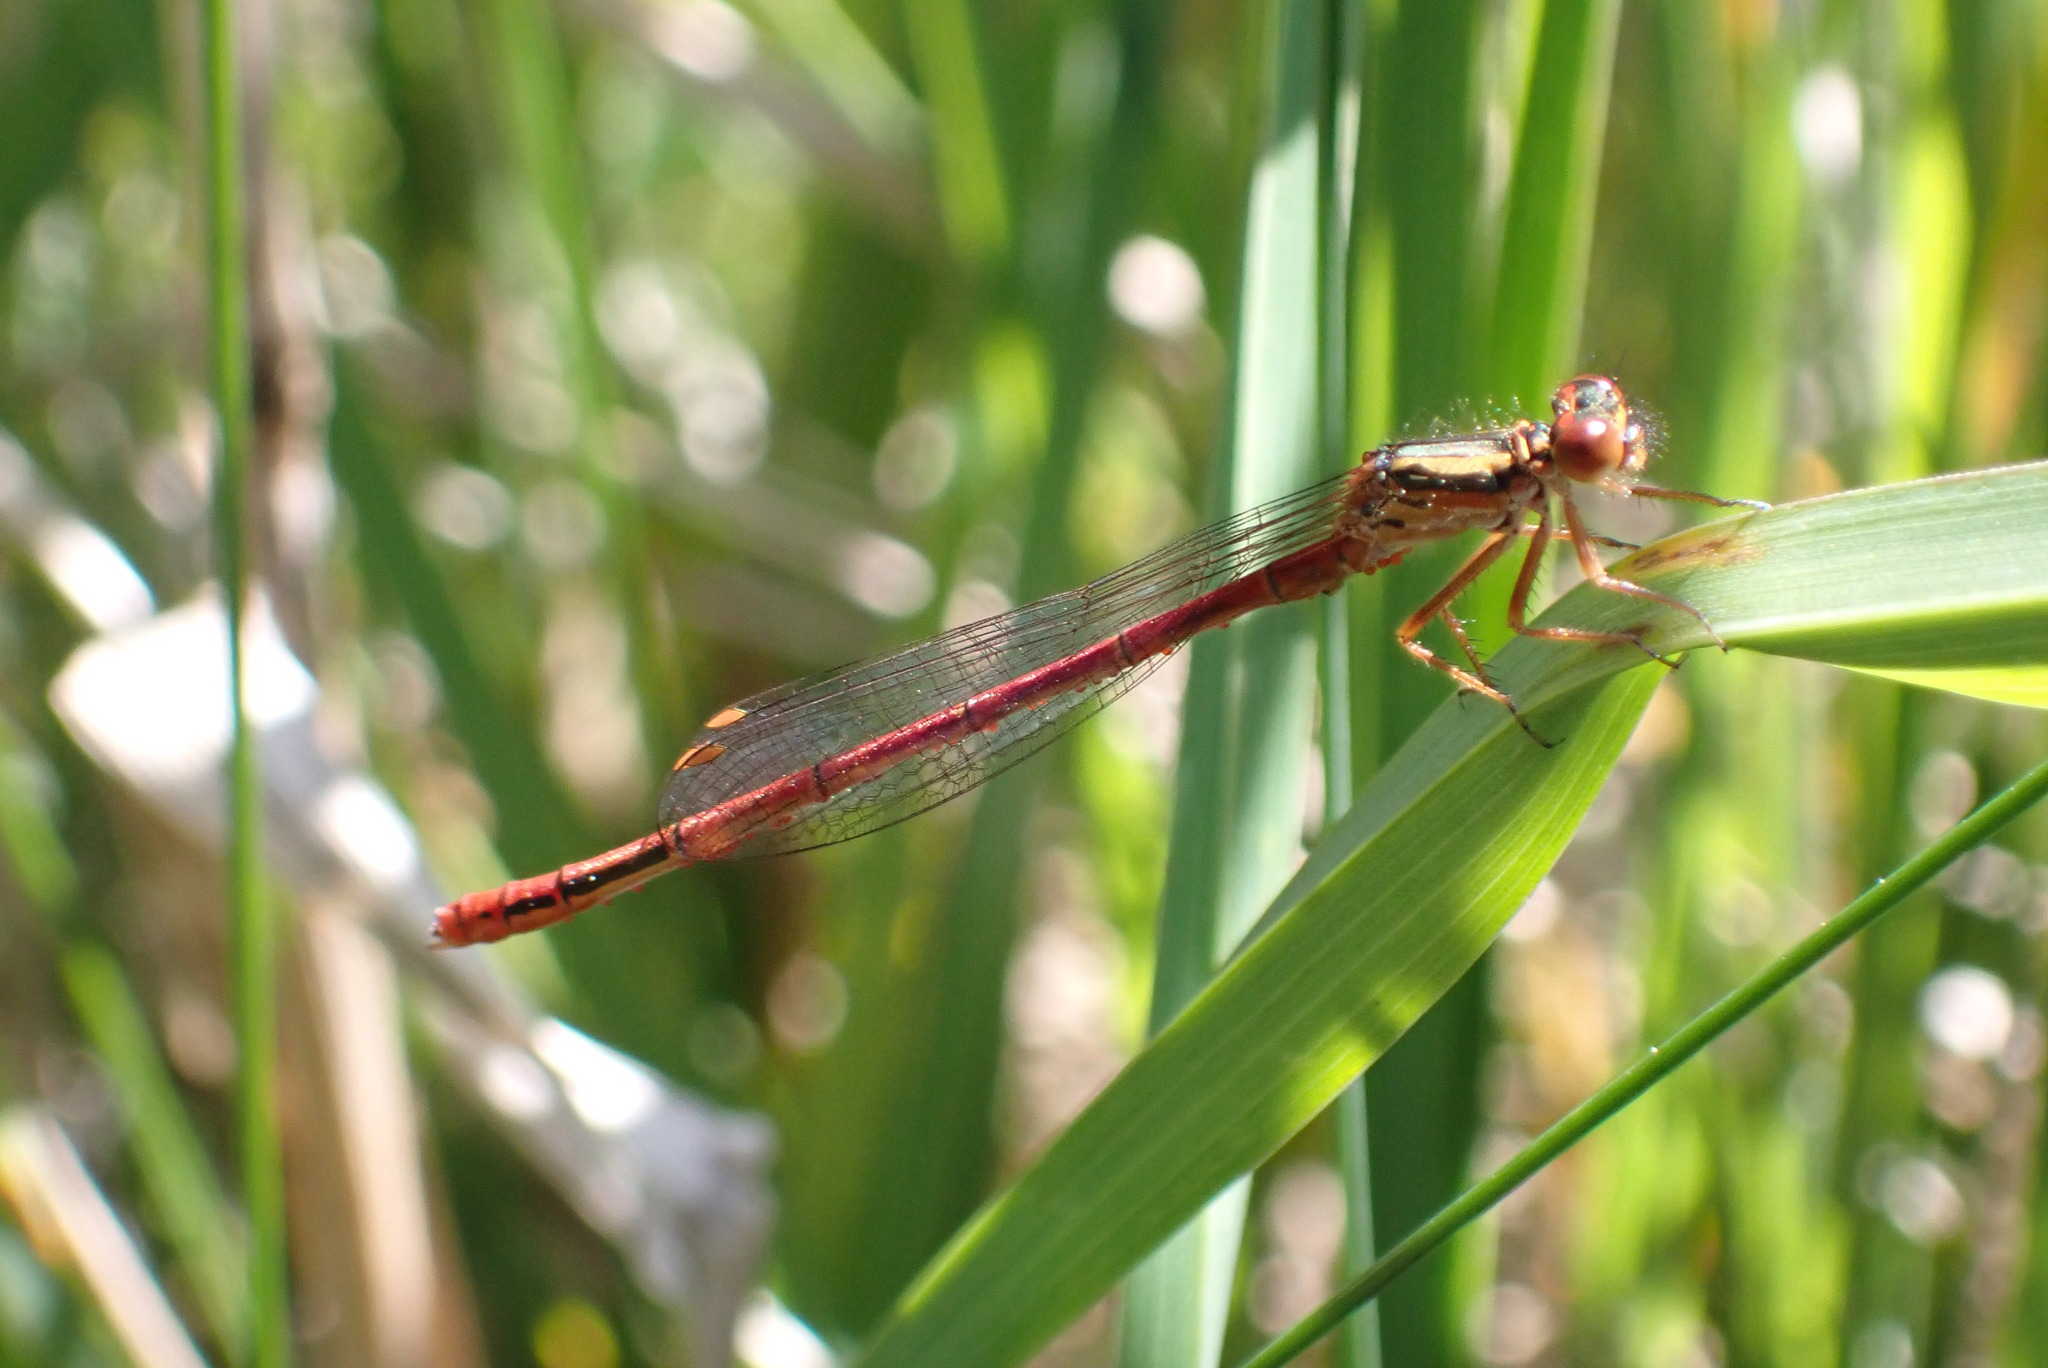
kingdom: Animalia
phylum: Arthropoda
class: Insecta
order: Odonata
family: Coenagrionidae
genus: Xanthocnemis
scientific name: Xanthocnemis zealandica
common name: Common redcoat damselfly
